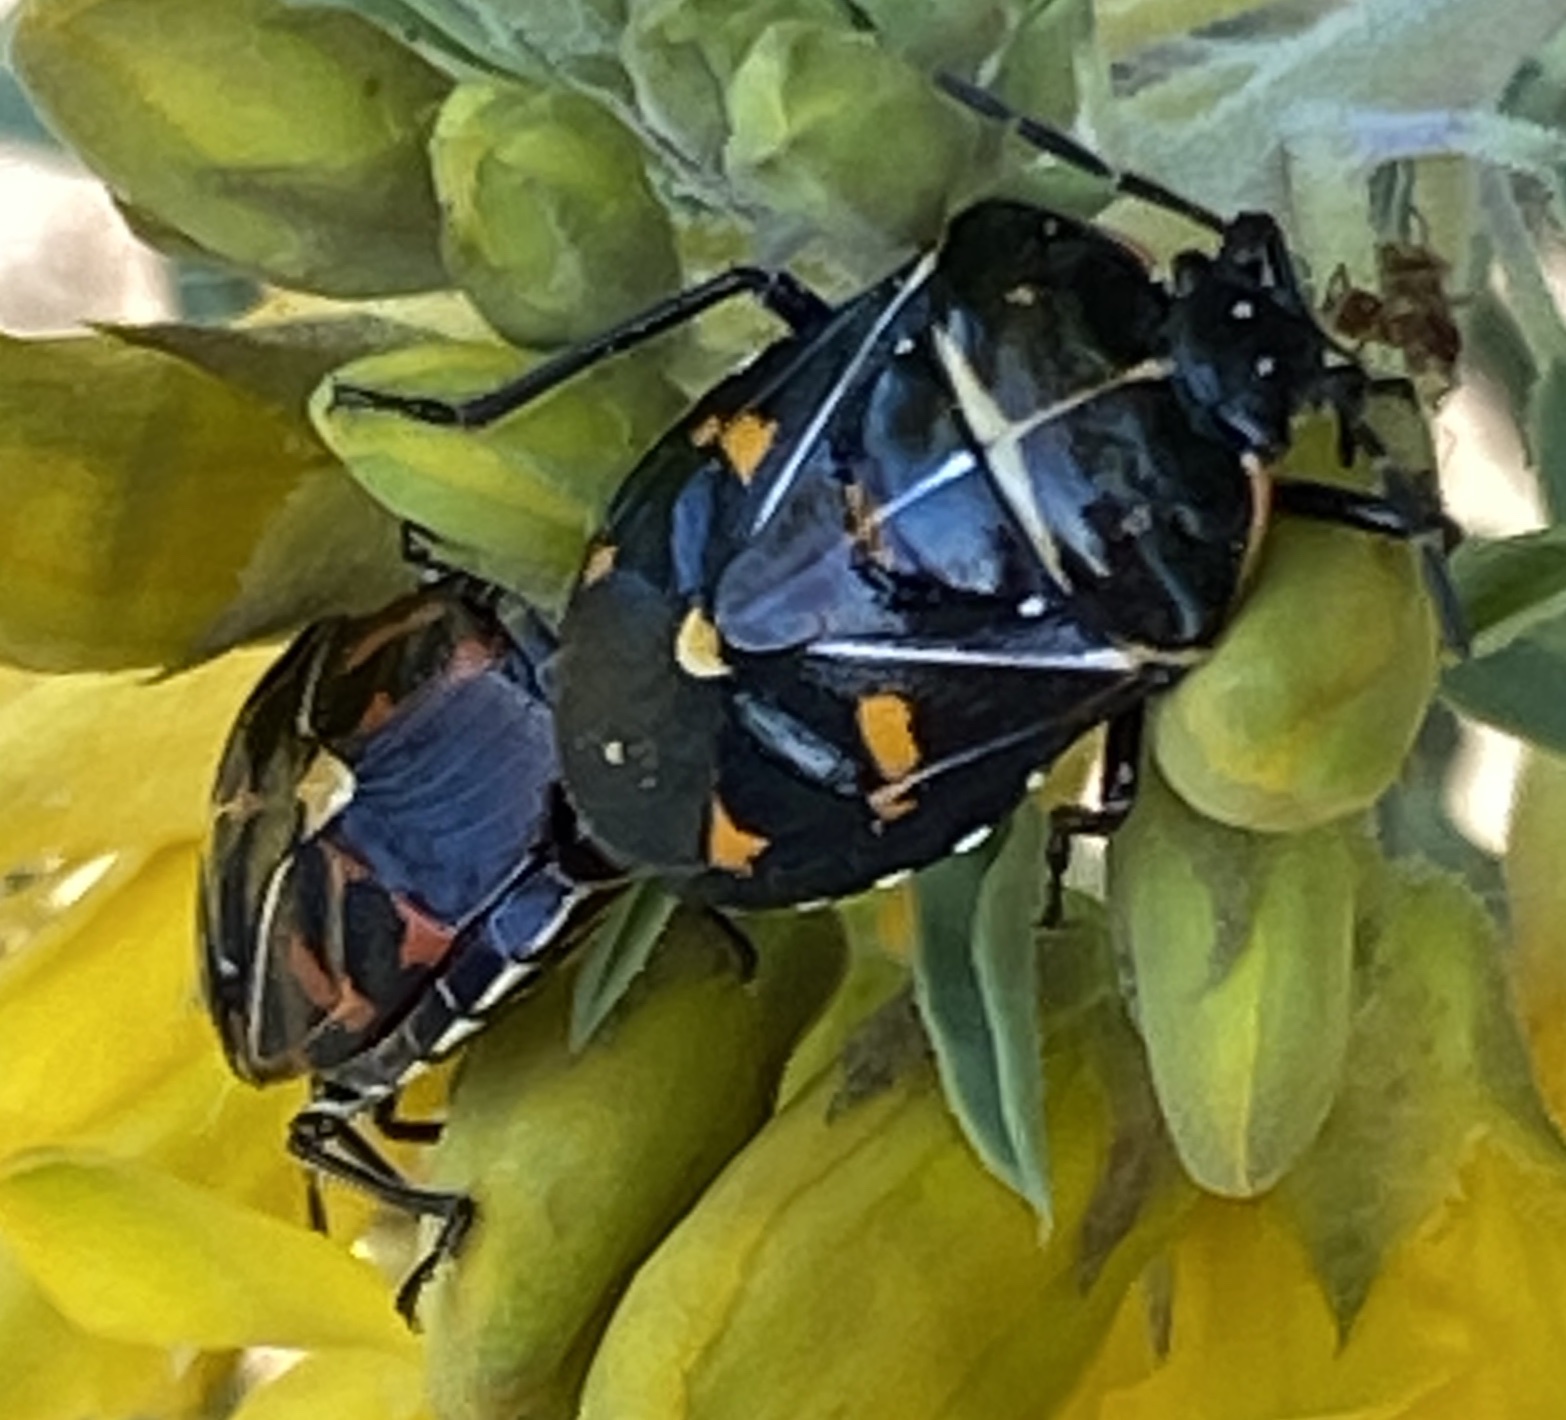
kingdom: Animalia
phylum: Arthropoda
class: Insecta
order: Hemiptera
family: Pentatomidae
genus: Murgantia
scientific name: Murgantia histrionica
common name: Harlequin bug
